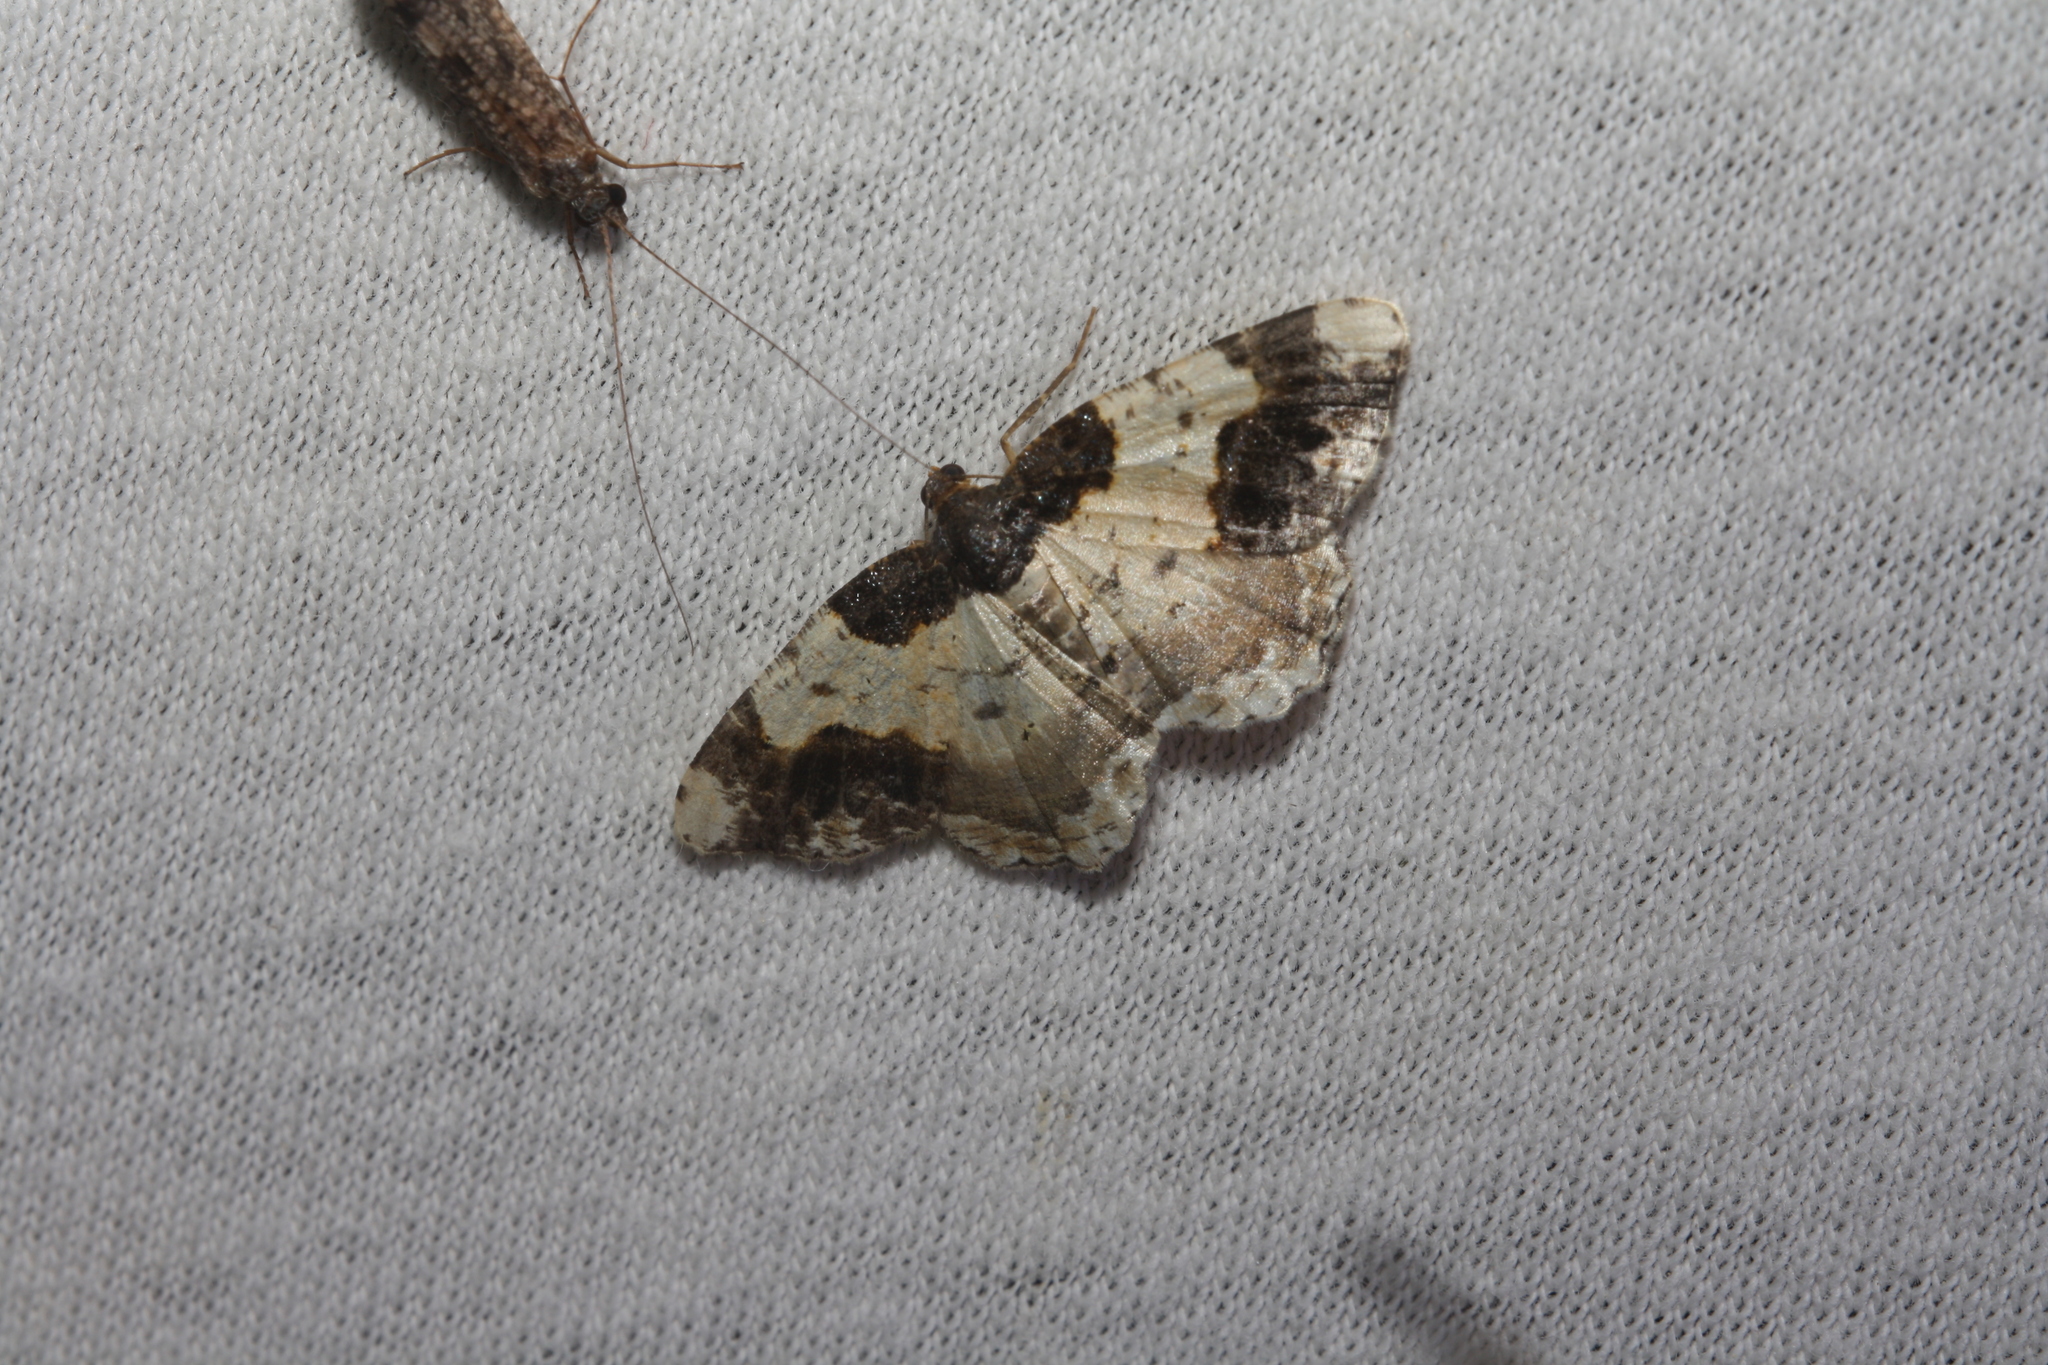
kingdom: Animalia
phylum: Arthropoda
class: Insecta
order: Lepidoptera
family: Geometridae
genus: Ligdia
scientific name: Ligdia adustata
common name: Scorched carpet
